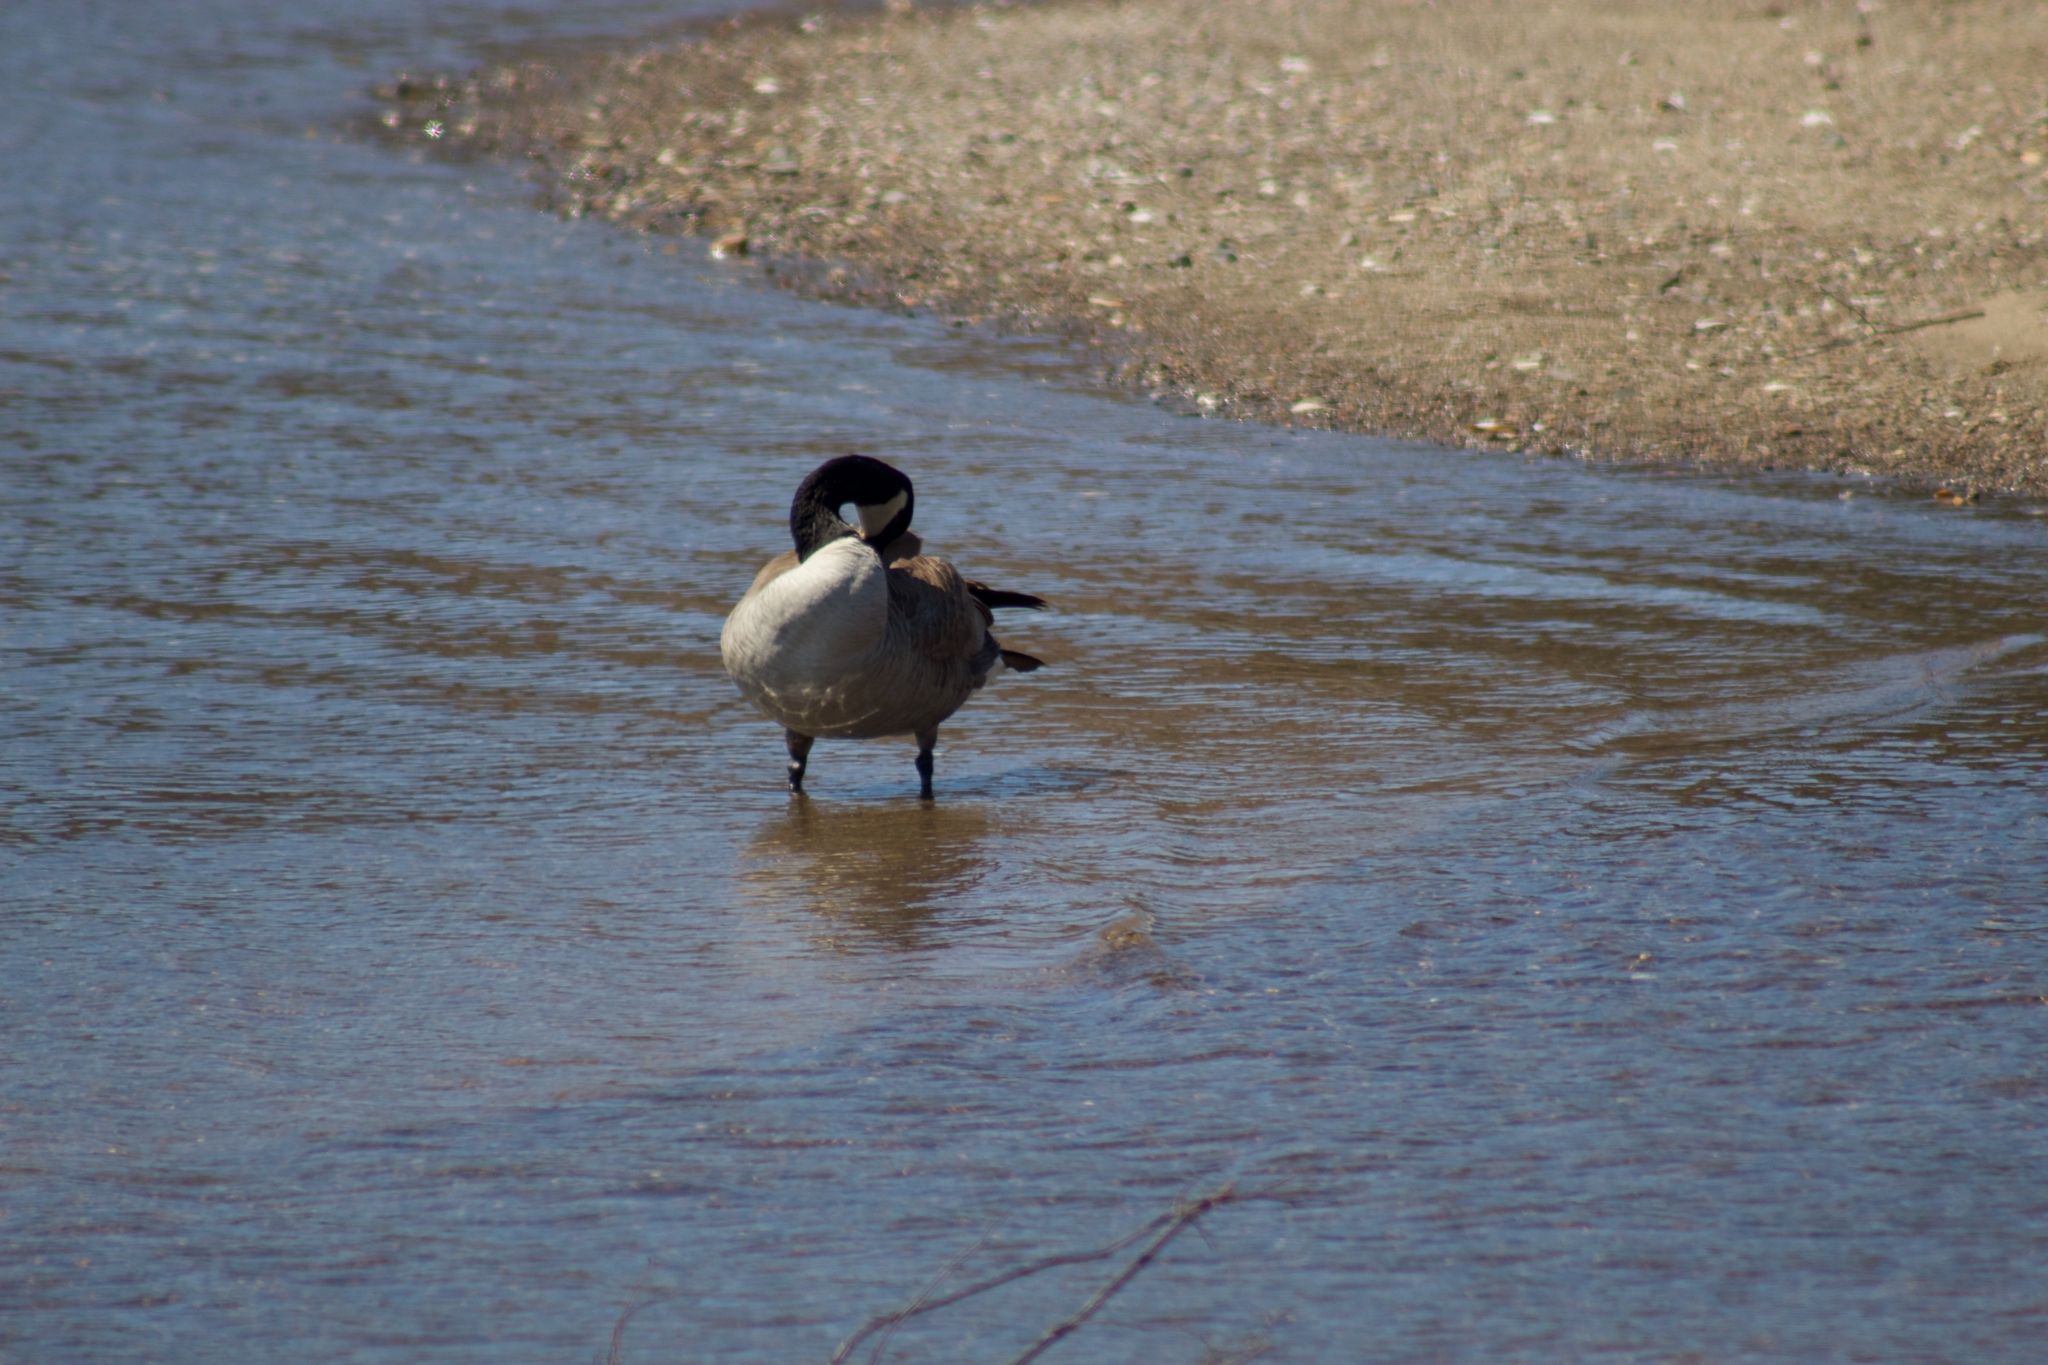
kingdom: Animalia
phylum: Chordata
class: Aves
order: Anseriformes
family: Anatidae
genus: Branta
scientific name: Branta canadensis
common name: Canada goose
